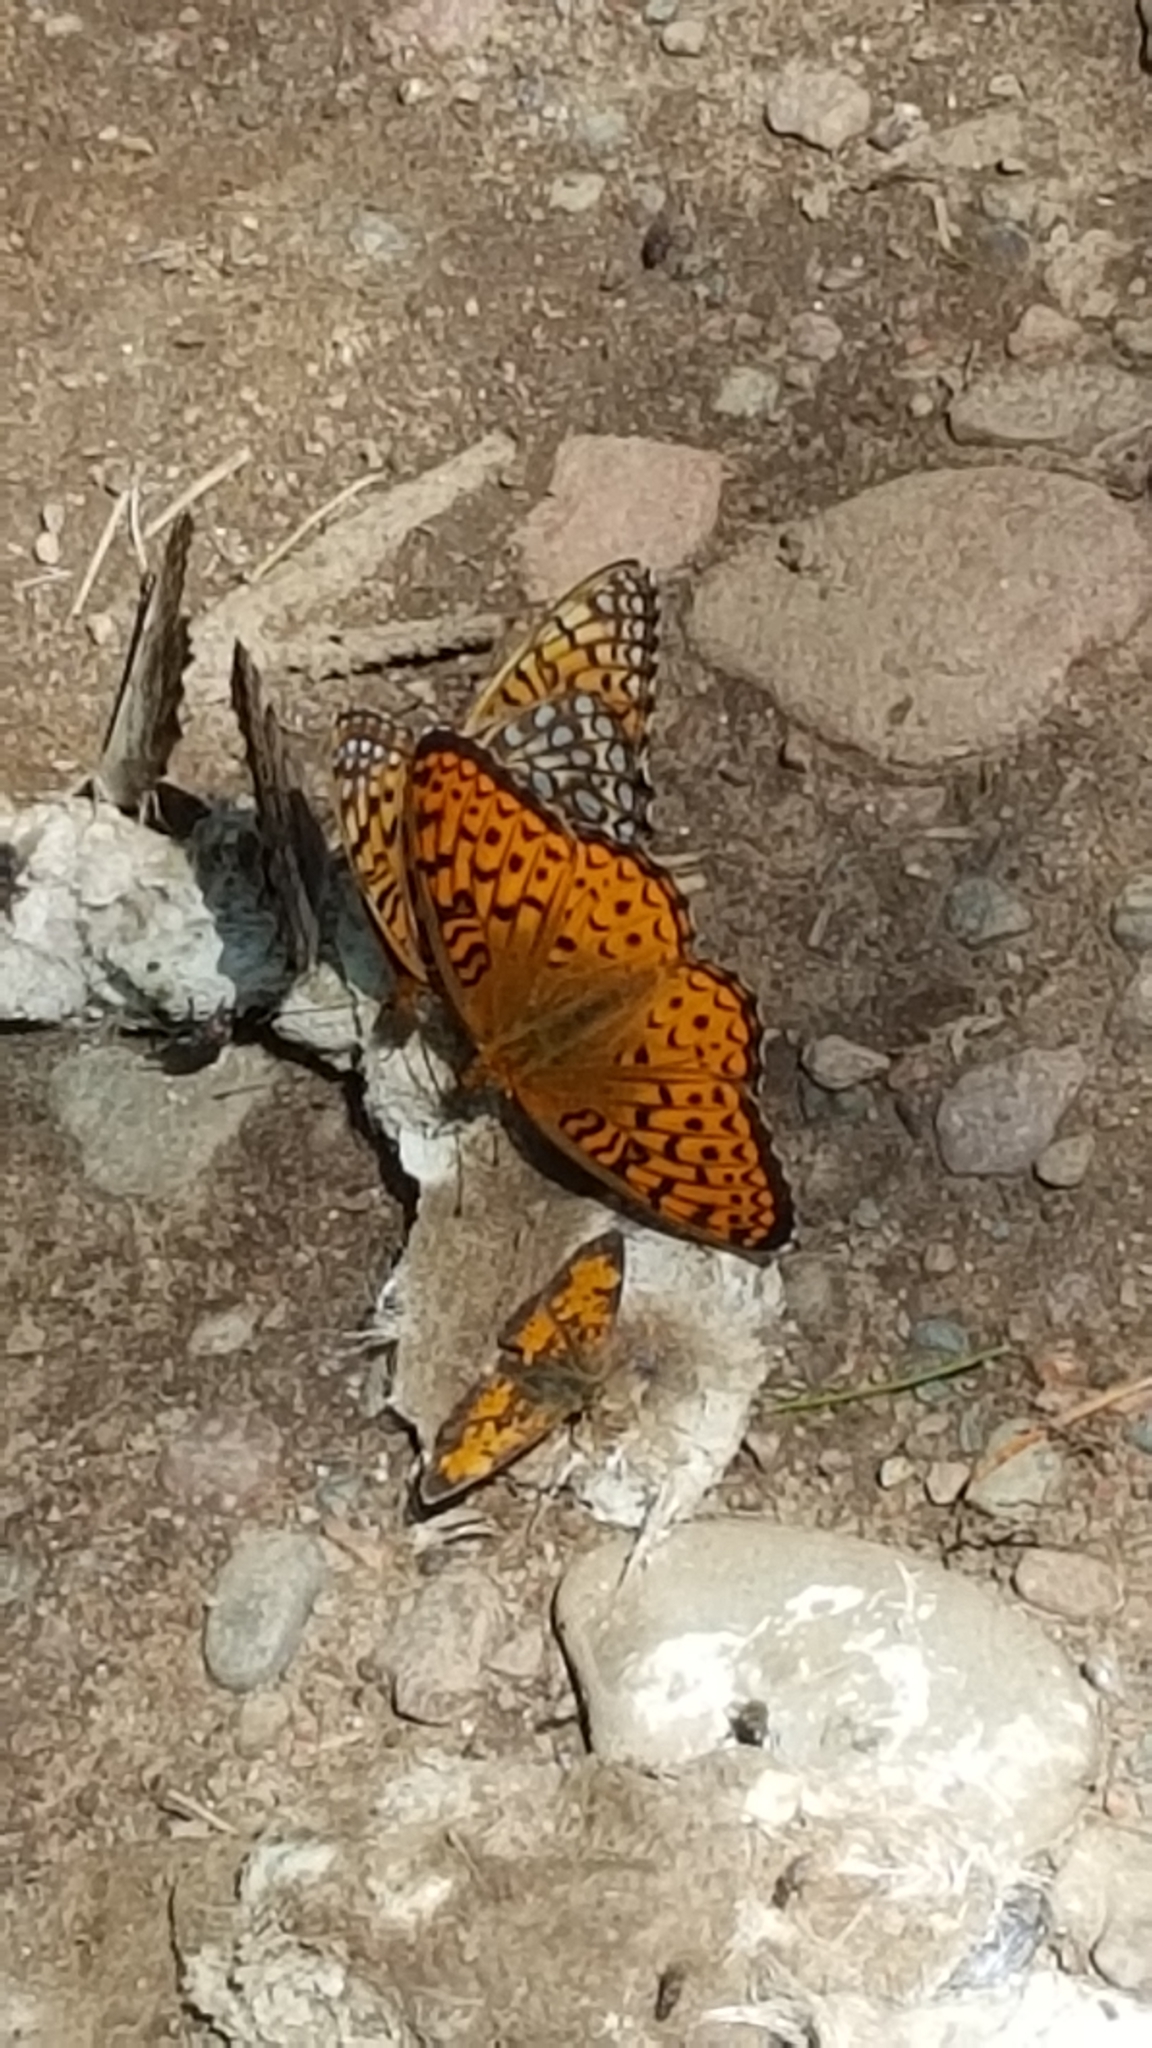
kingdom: Animalia
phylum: Arthropoda
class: Insecta
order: Lepidoptera
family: Nymphalidae
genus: Speyeria
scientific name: Speyeria atlantis
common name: Atlantis fritillary
